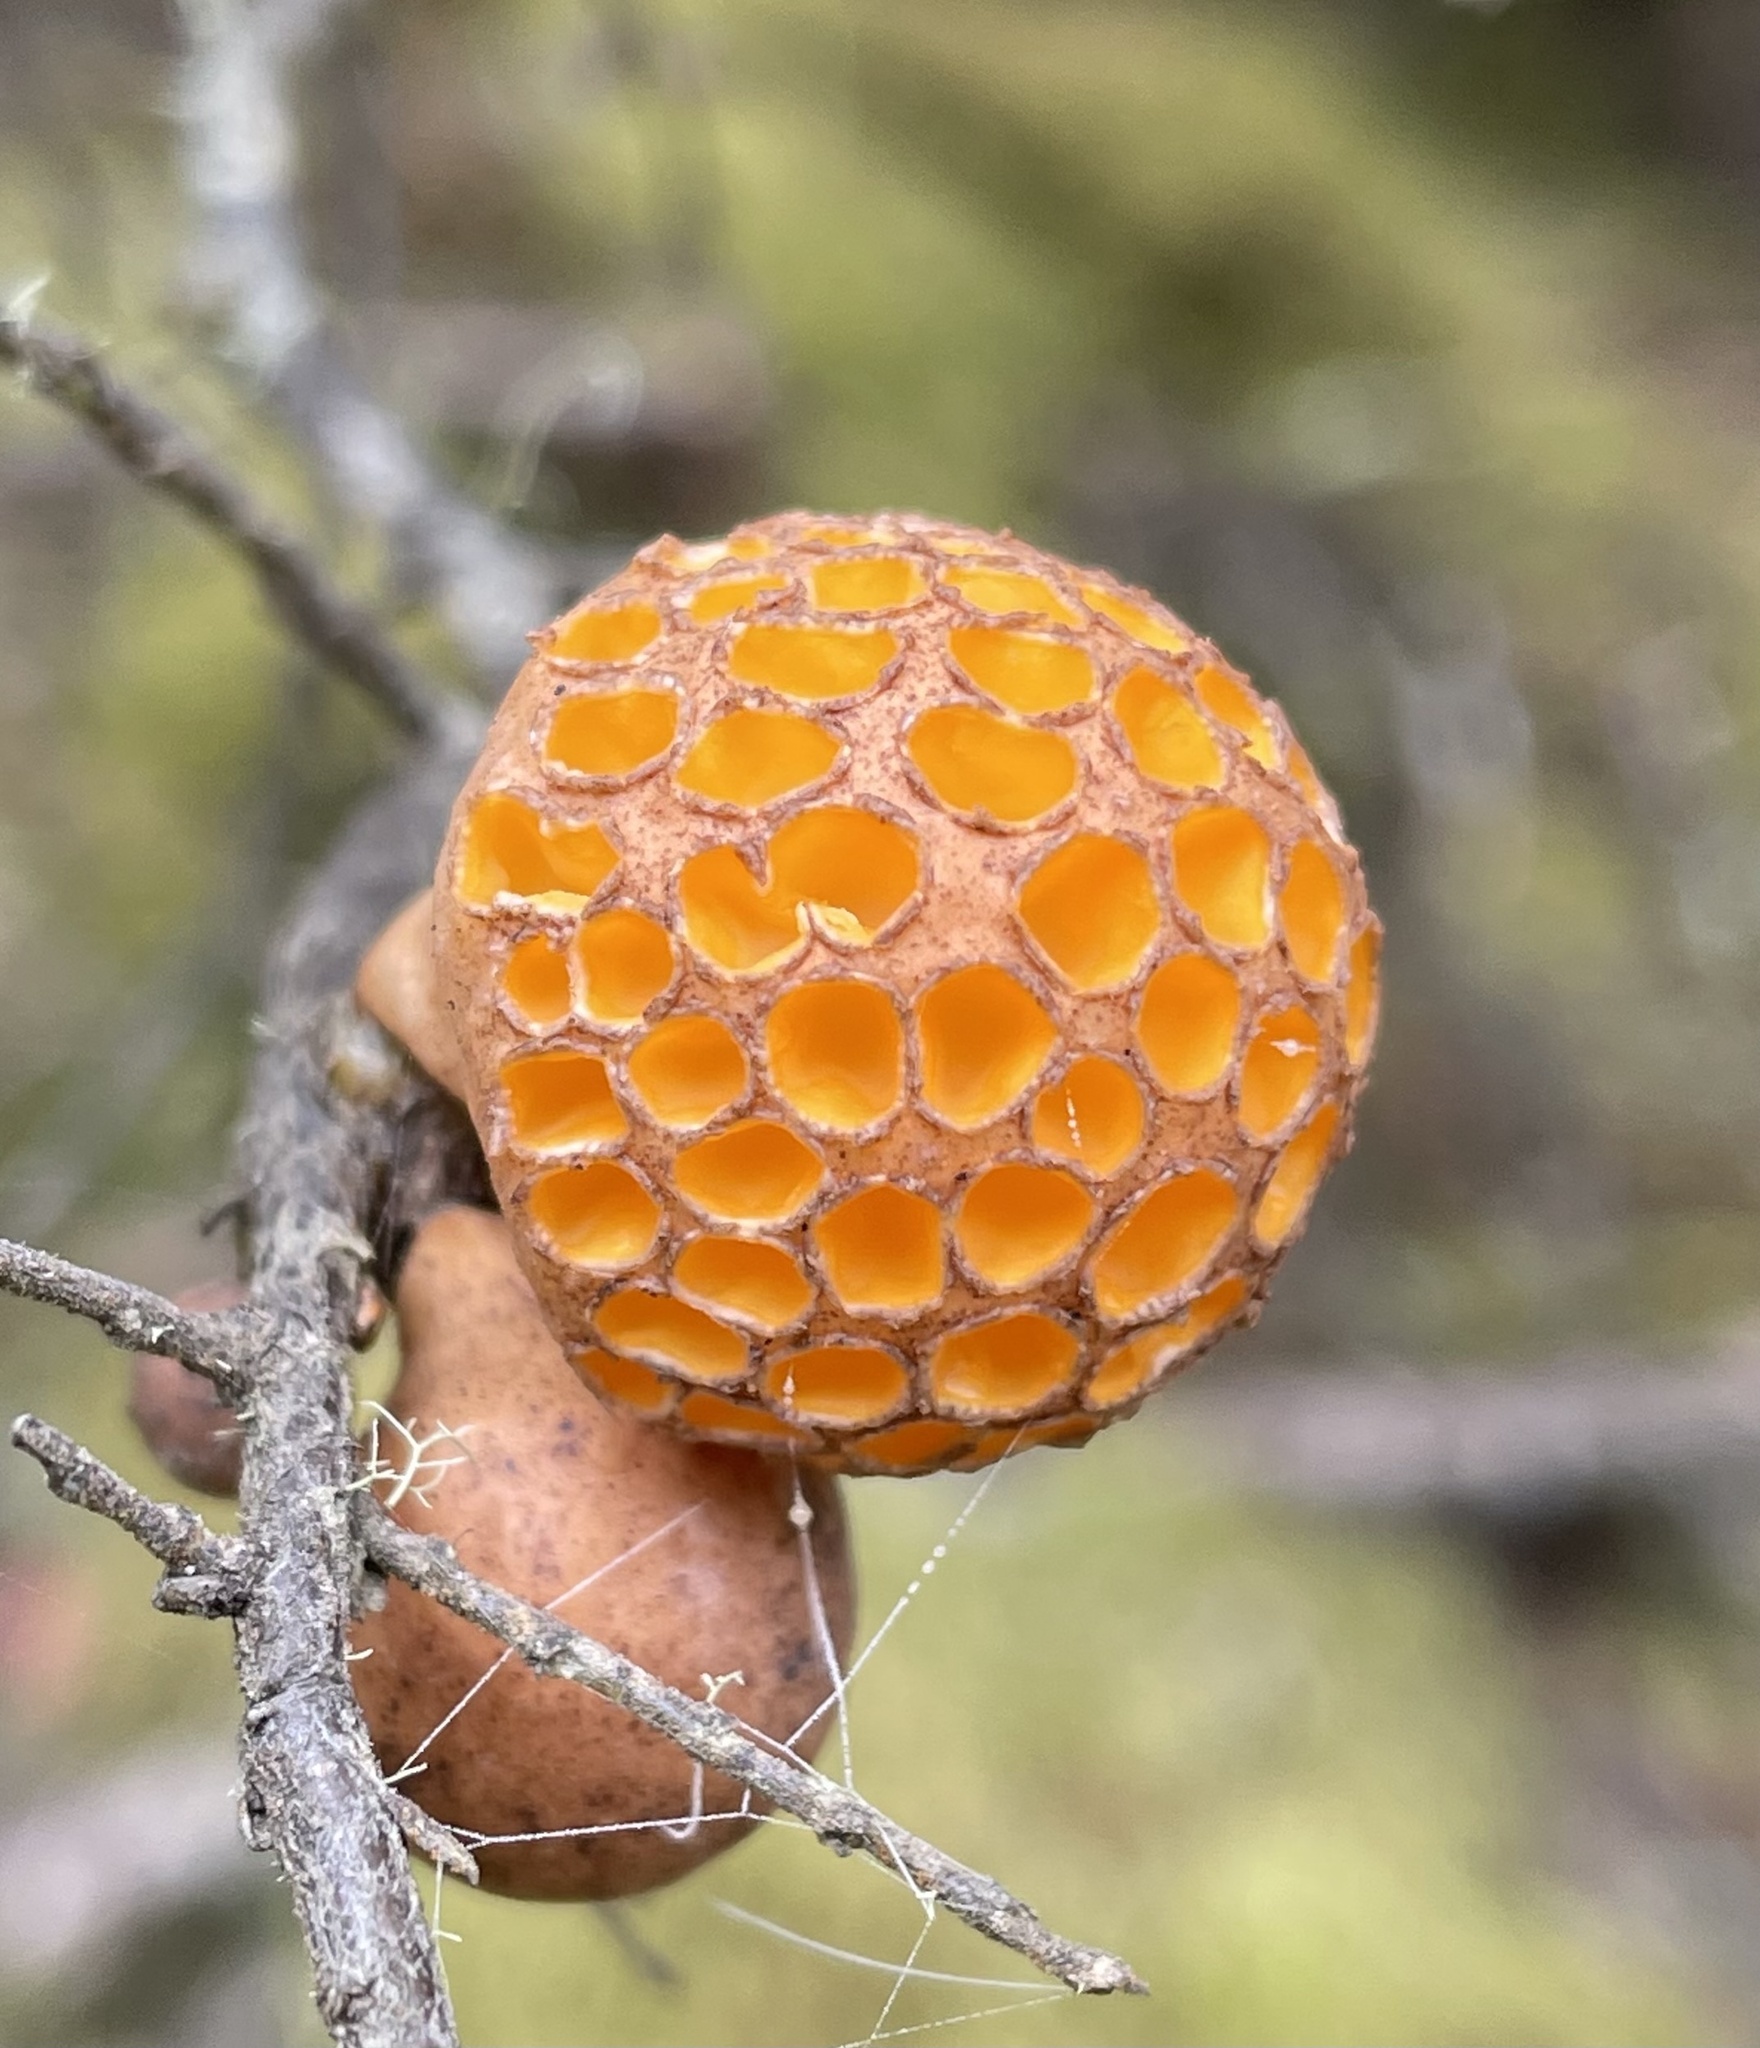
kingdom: Fungi
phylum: Ascomycota
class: Leotiomycetes
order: Cyttariales
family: Cyttariaceae
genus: Cyttaria
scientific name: Cyttaria gunnii
